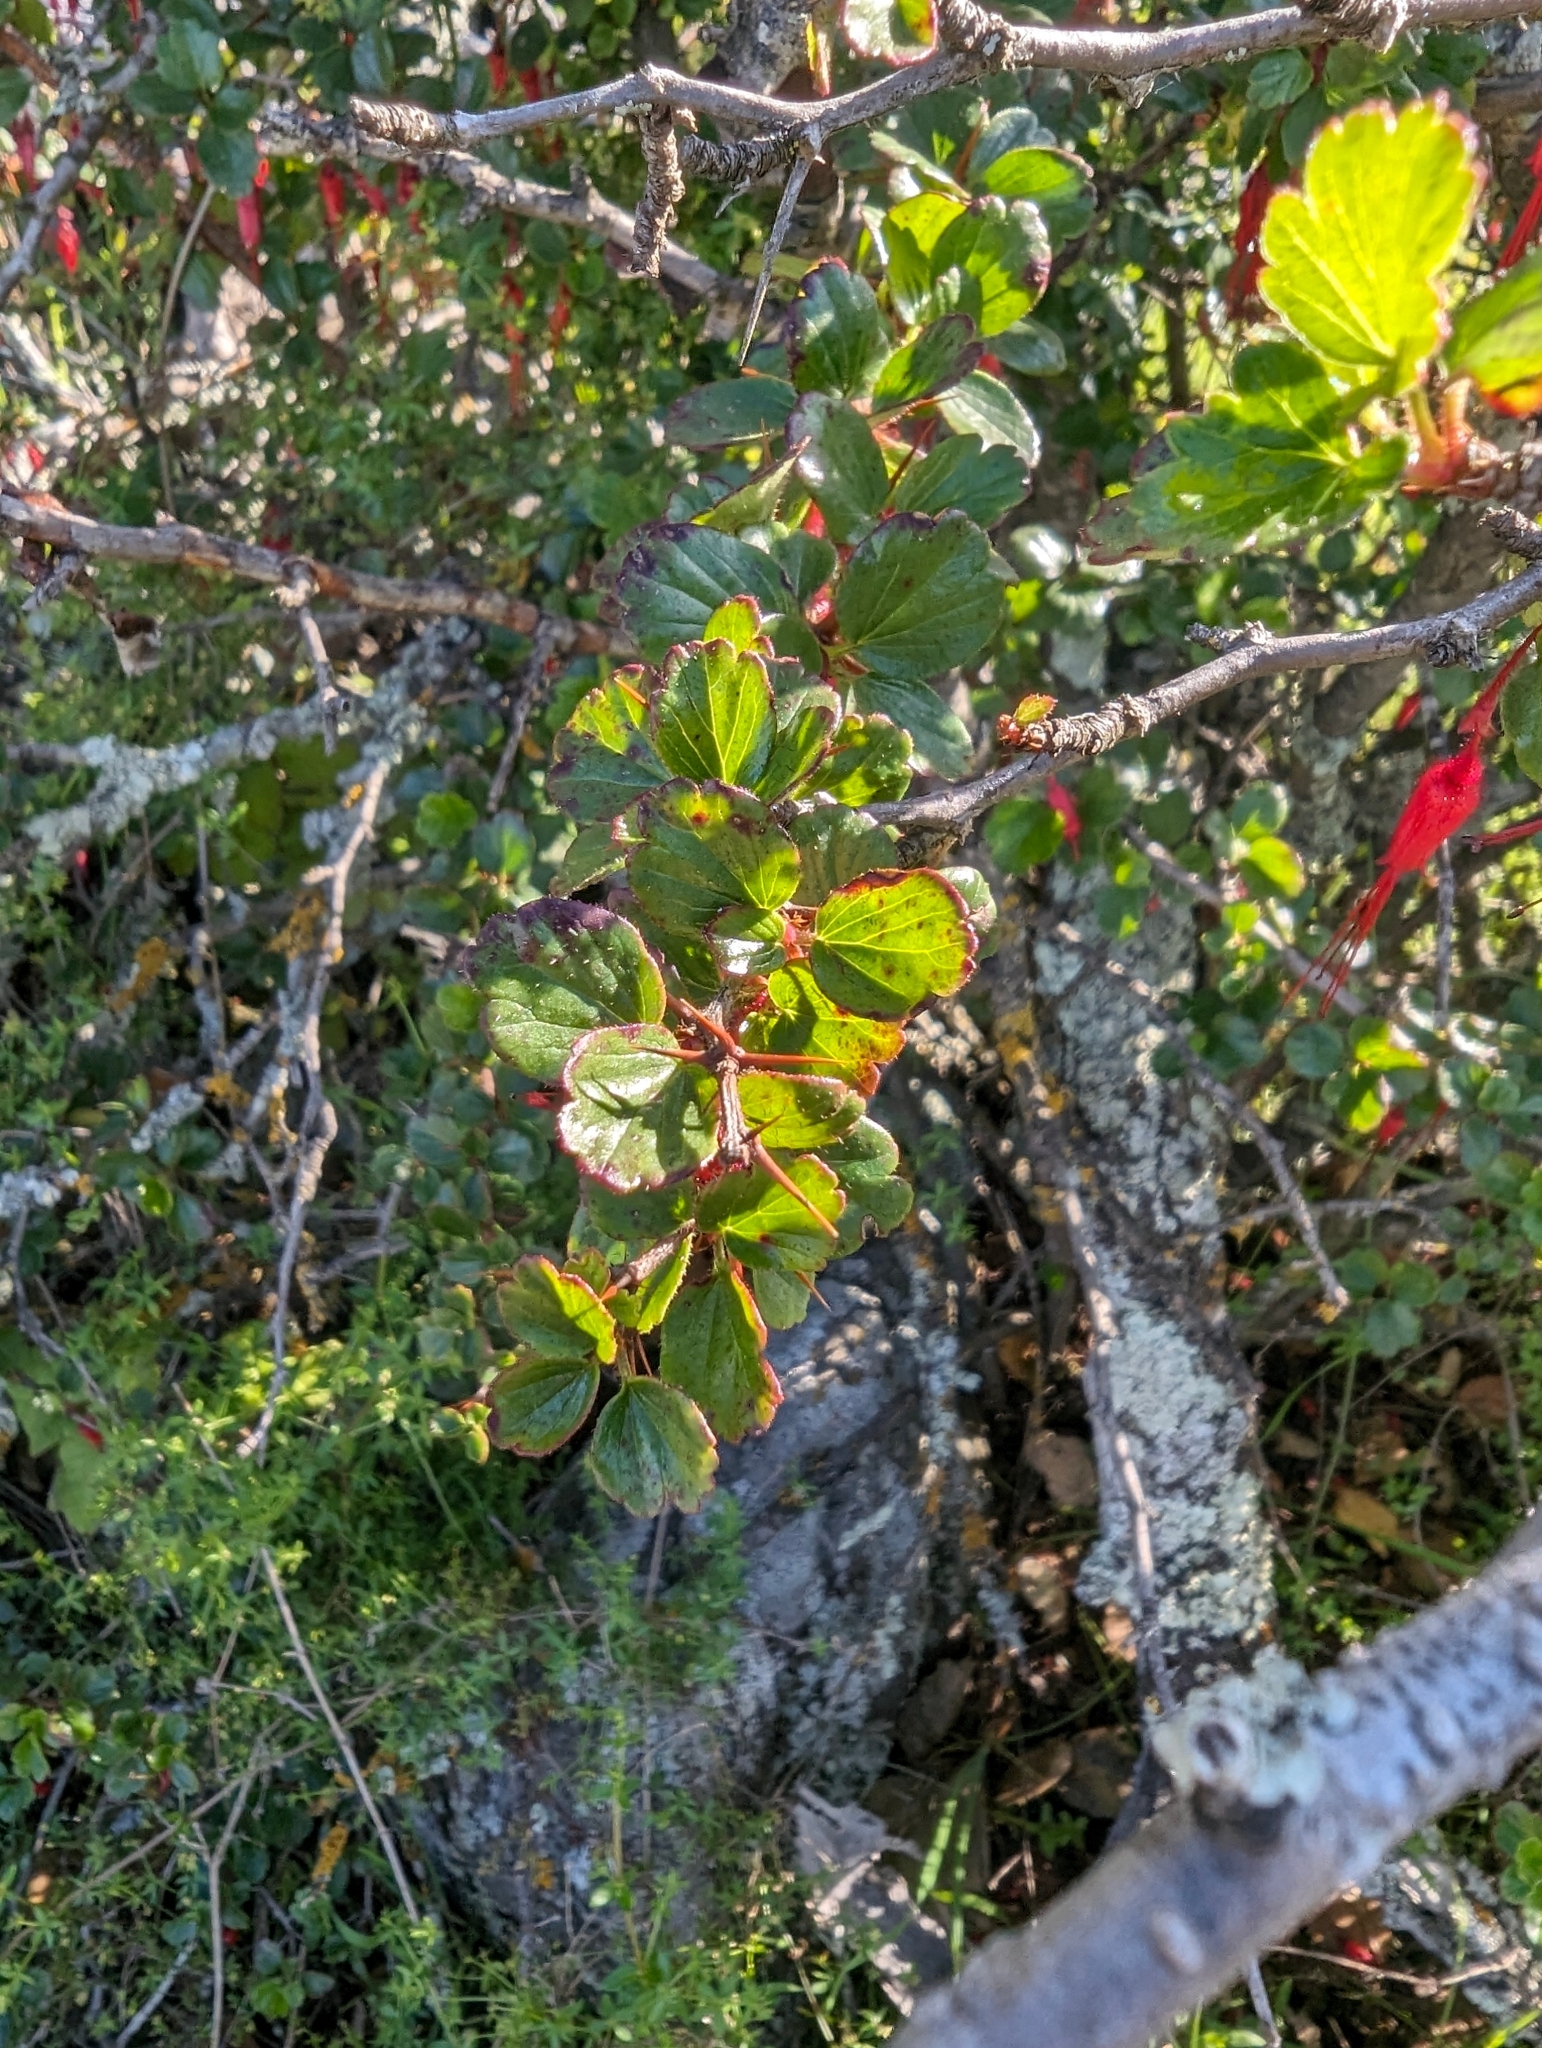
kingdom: Plantae
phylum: Tracheophyta
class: Magnoliopsida
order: Saxifragales
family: Grossulariaceae
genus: Ribes
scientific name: Ribes speciosum
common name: Fuchsia-flower gooseberry
